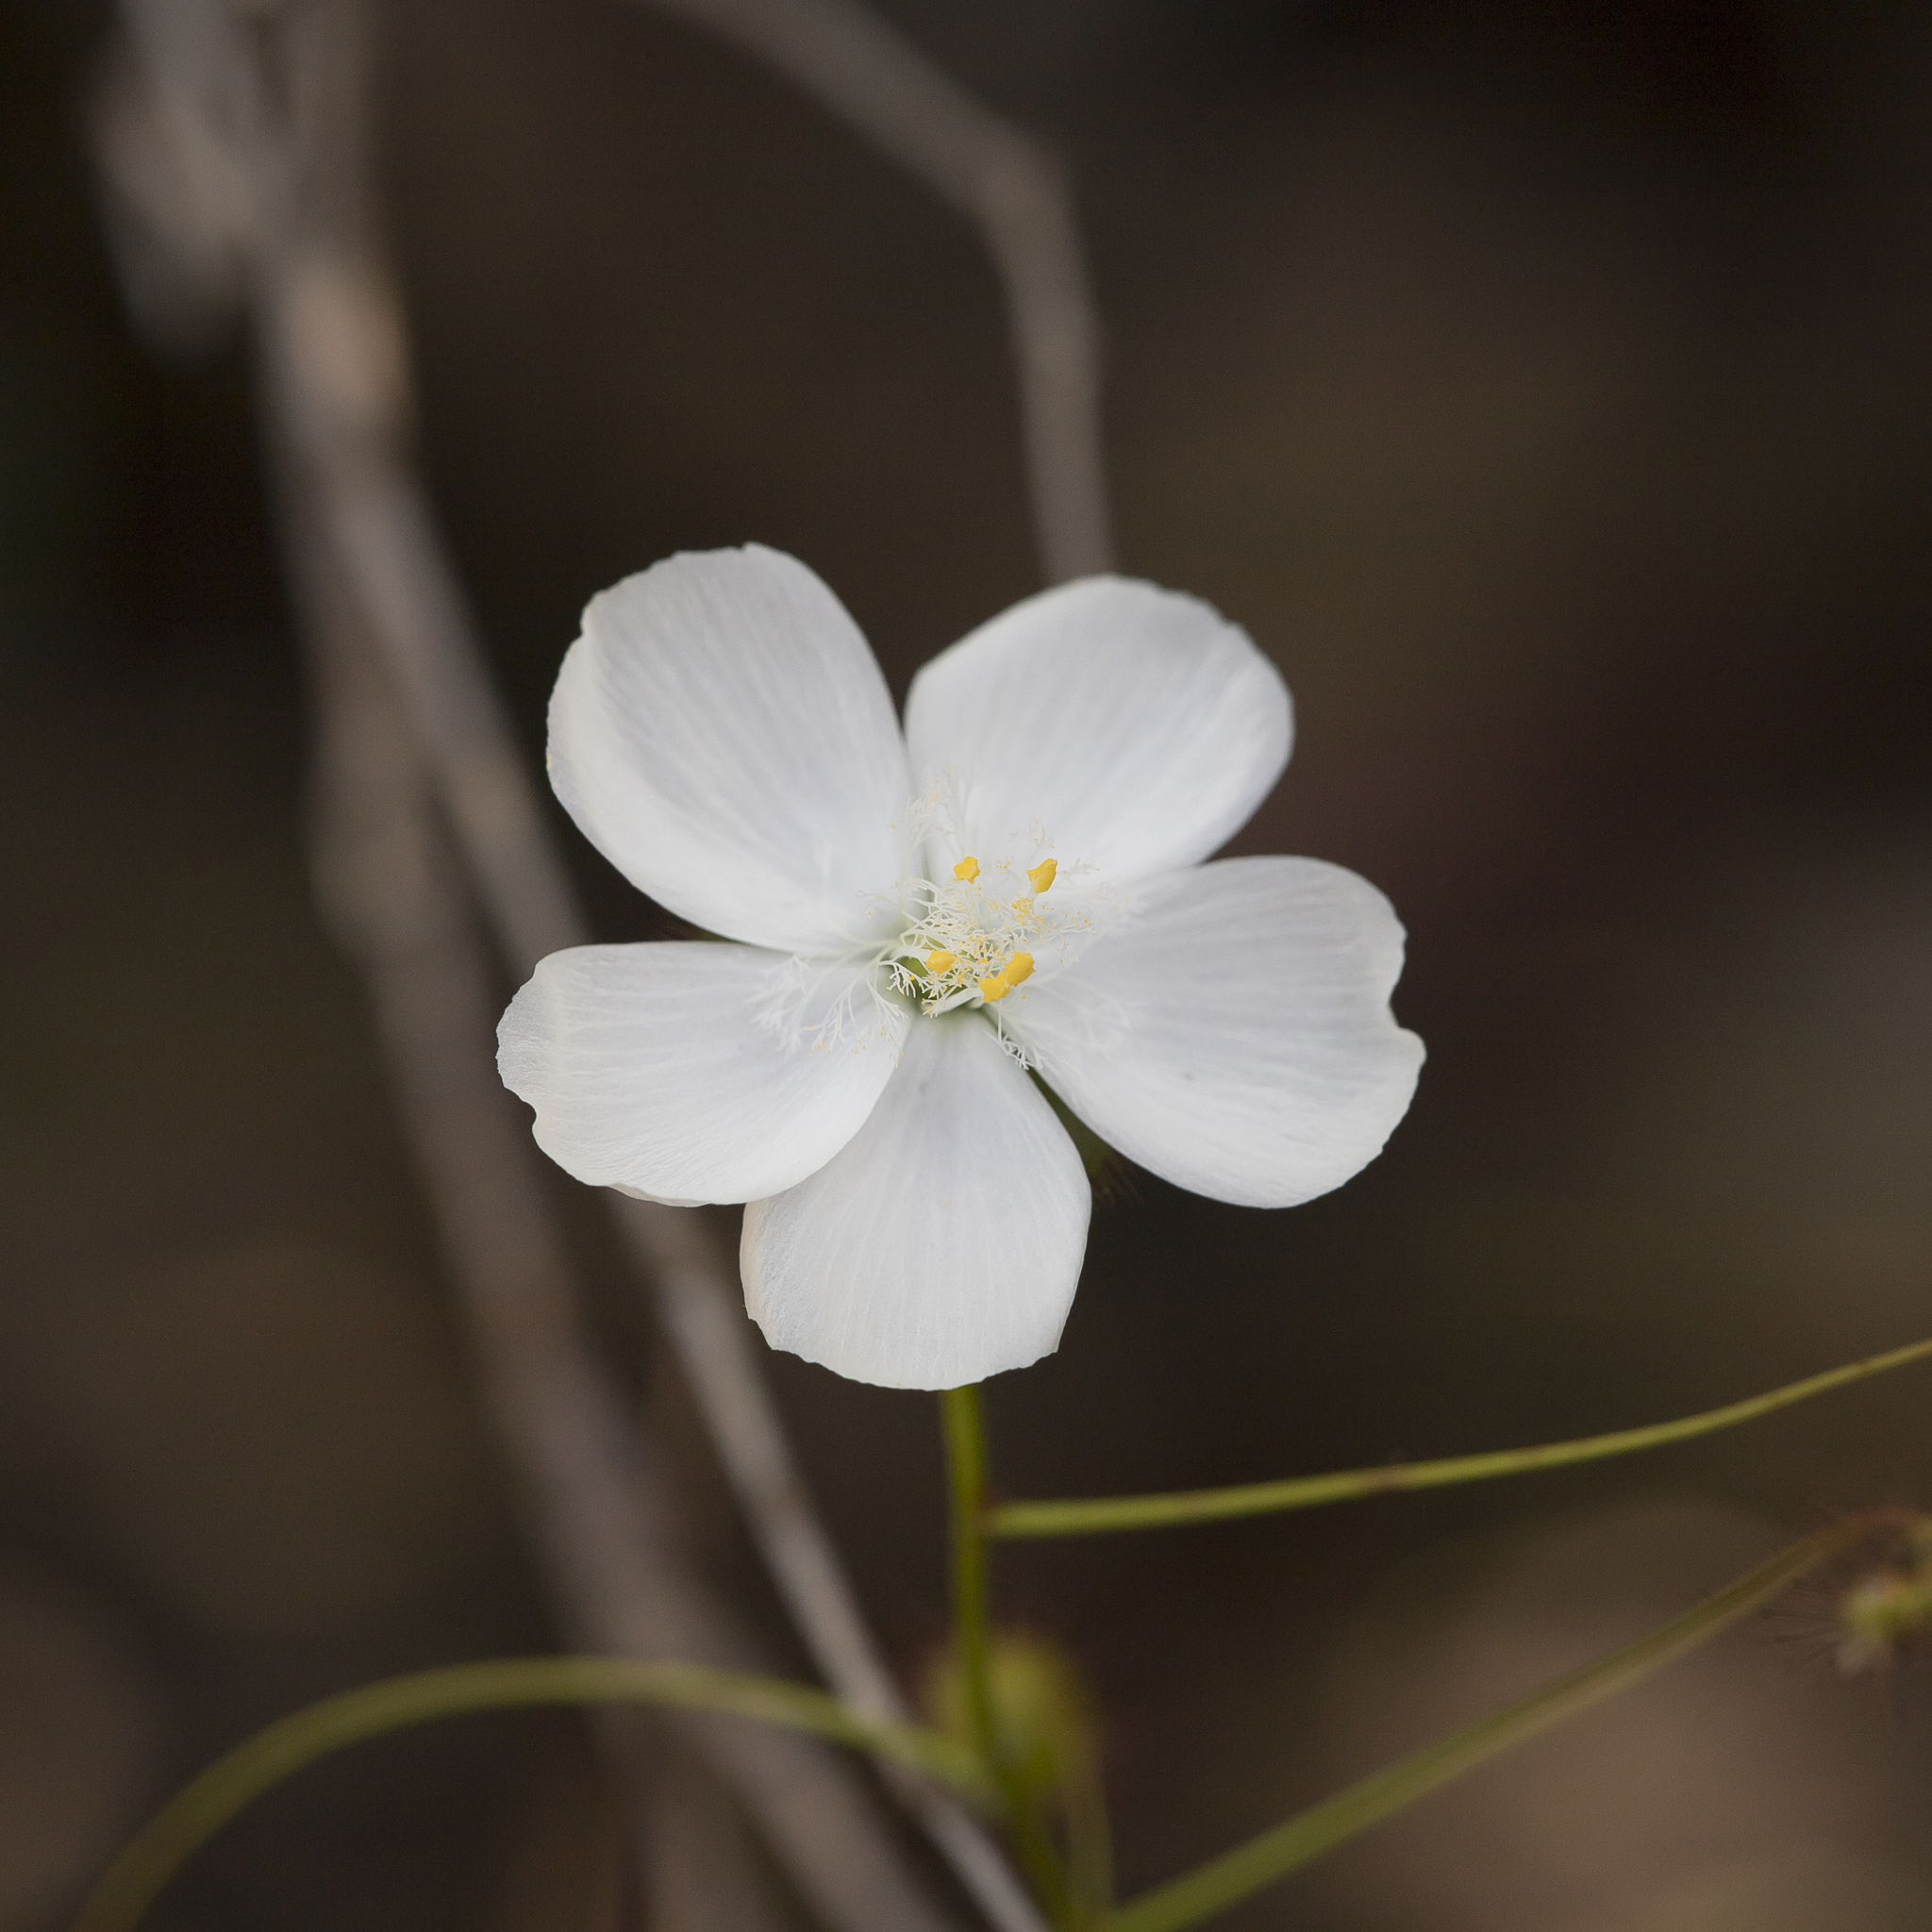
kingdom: Plantae
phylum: Tracheophyta
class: Magnoliopsida
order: Caryophyllales
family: Droseraceae
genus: Drosera
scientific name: Drosera planchonii
